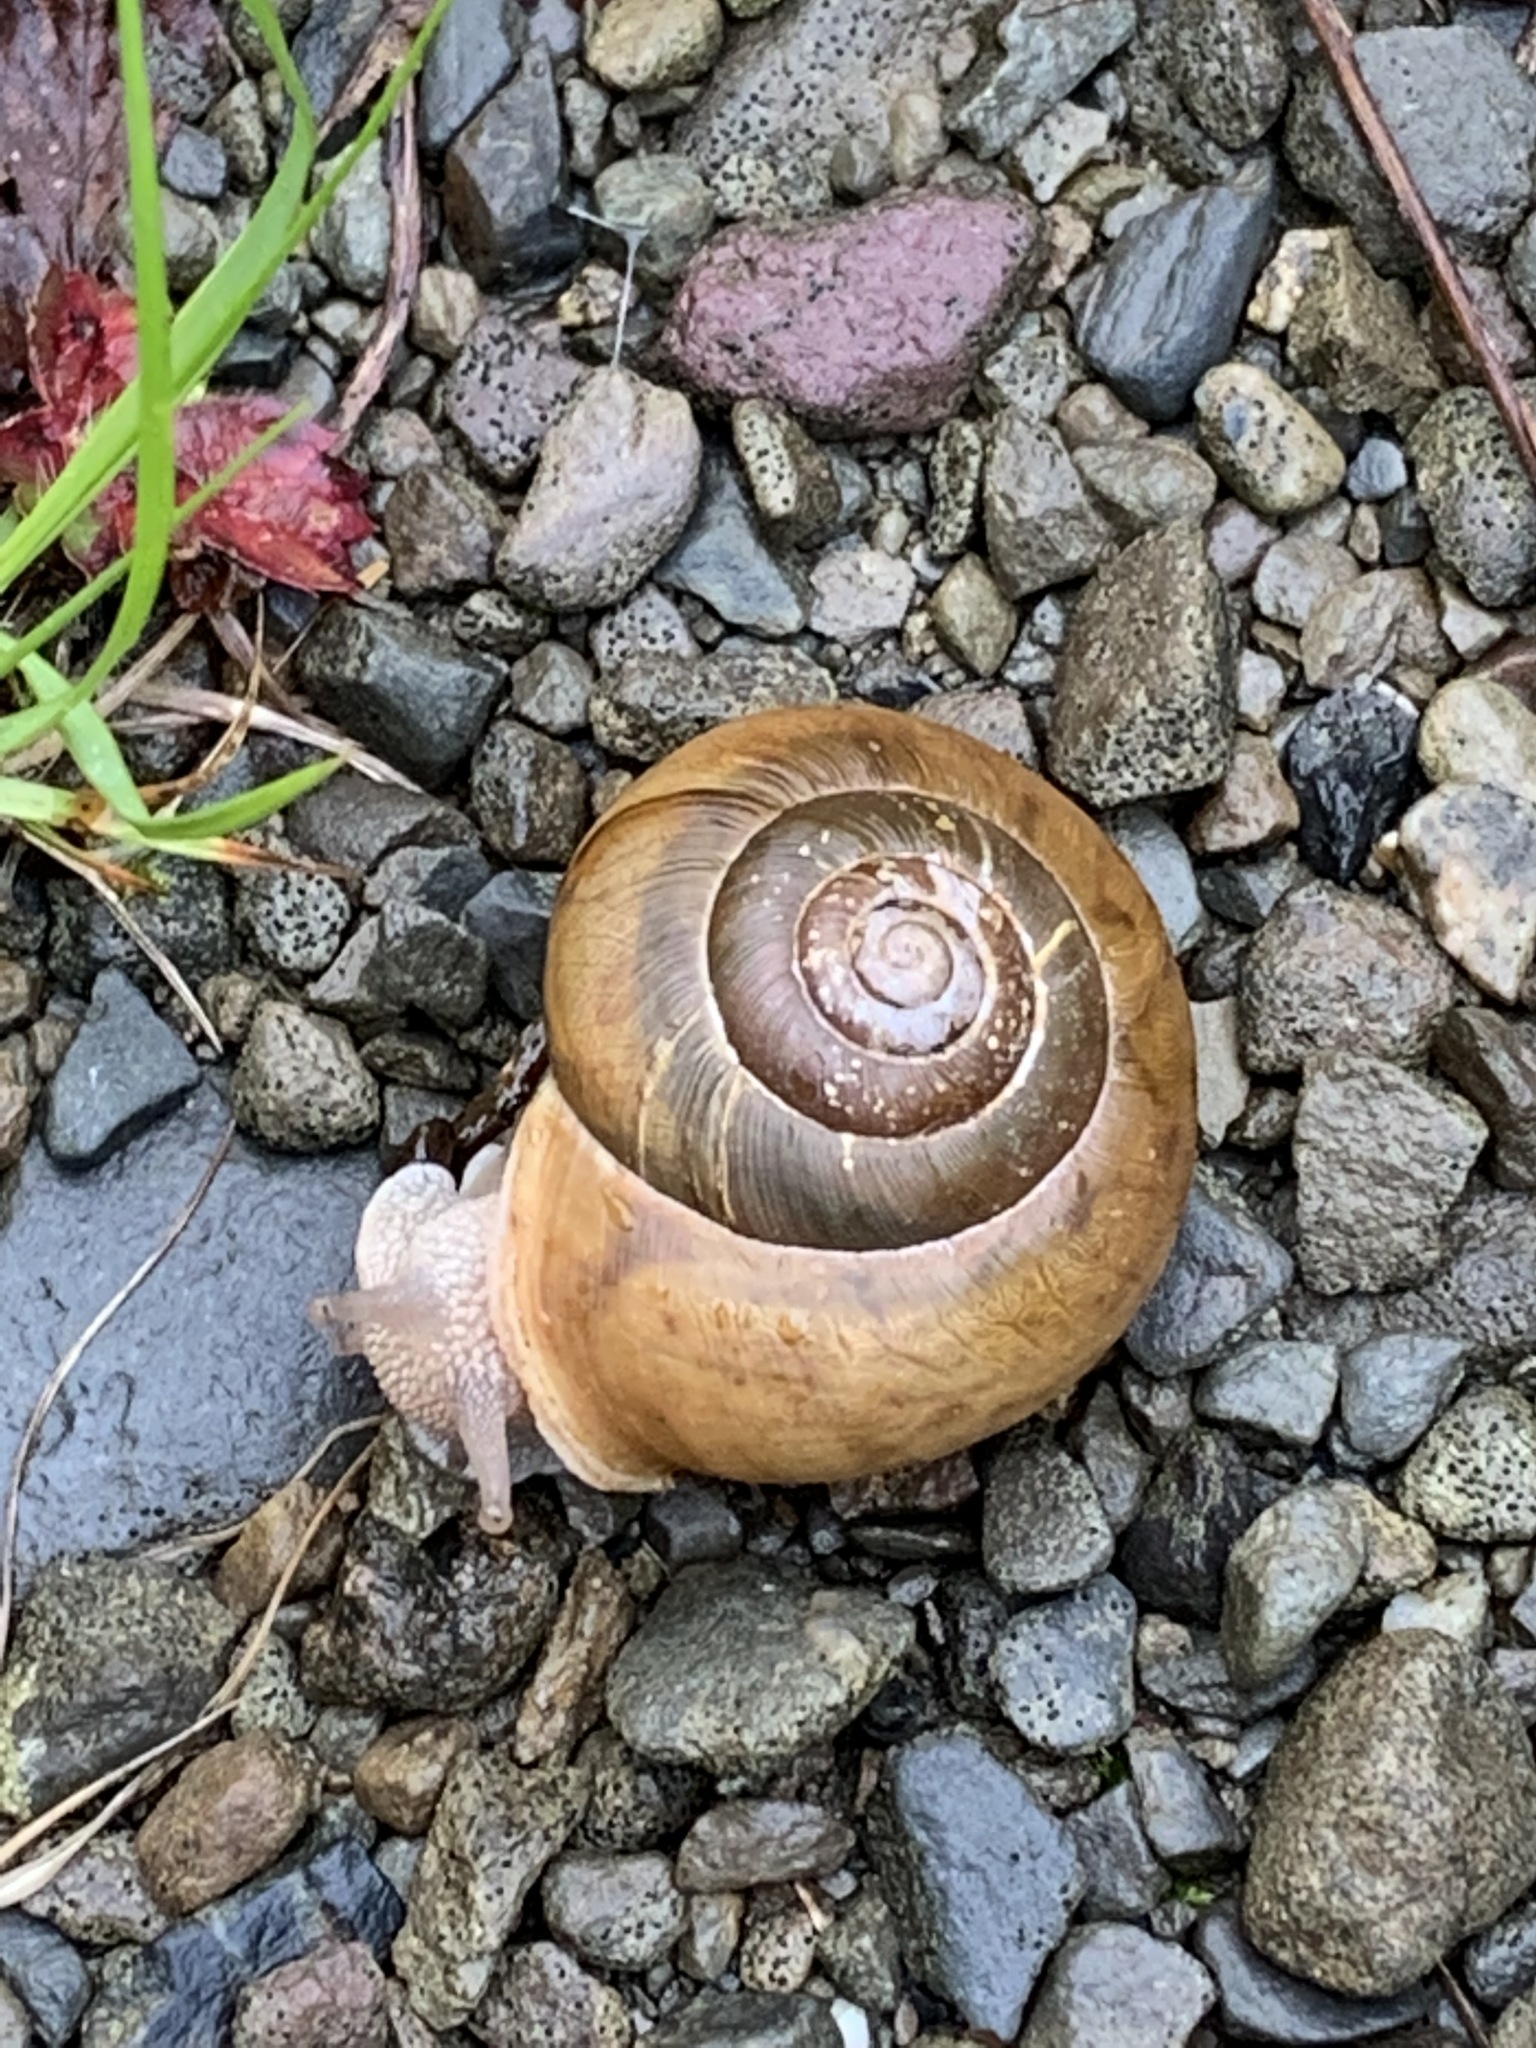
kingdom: Animalia
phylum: Mollusca
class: Gastropoda
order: Stylommatophora
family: Polygyridae
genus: Neohelix
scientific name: Neohelix albolabris
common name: Eastern whitelip
